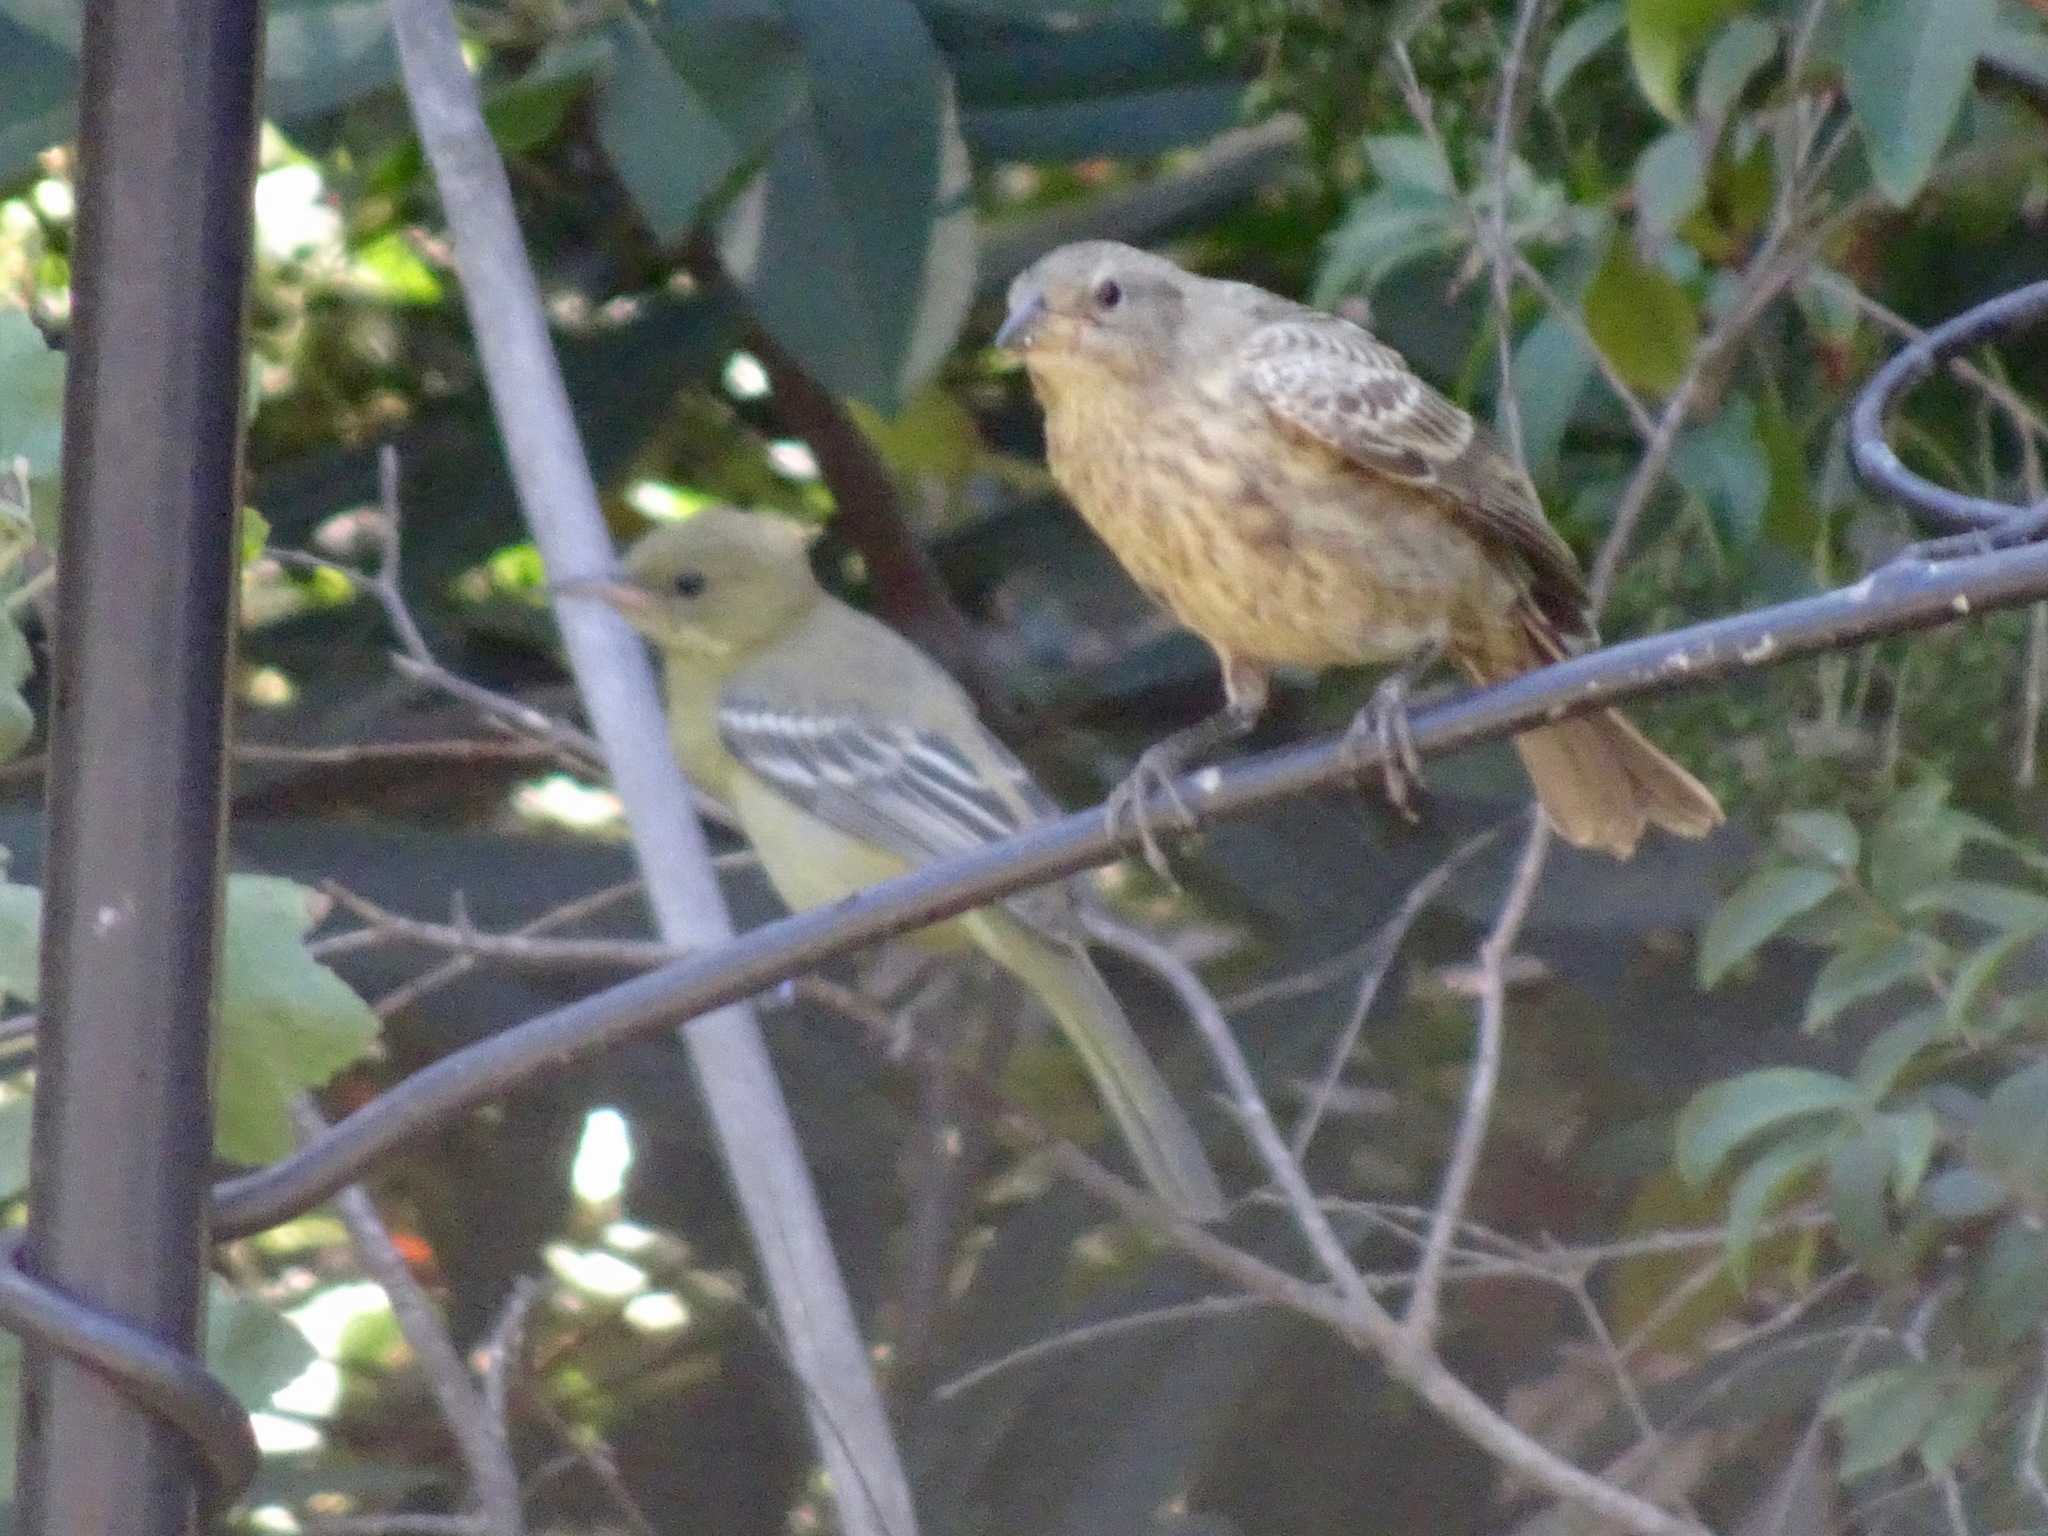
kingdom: Animalia
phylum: Chordata
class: Aves
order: Passeriformes
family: Icteridae
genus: Molothrus
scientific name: Molothrus ater
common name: Brown-headed cowbird
